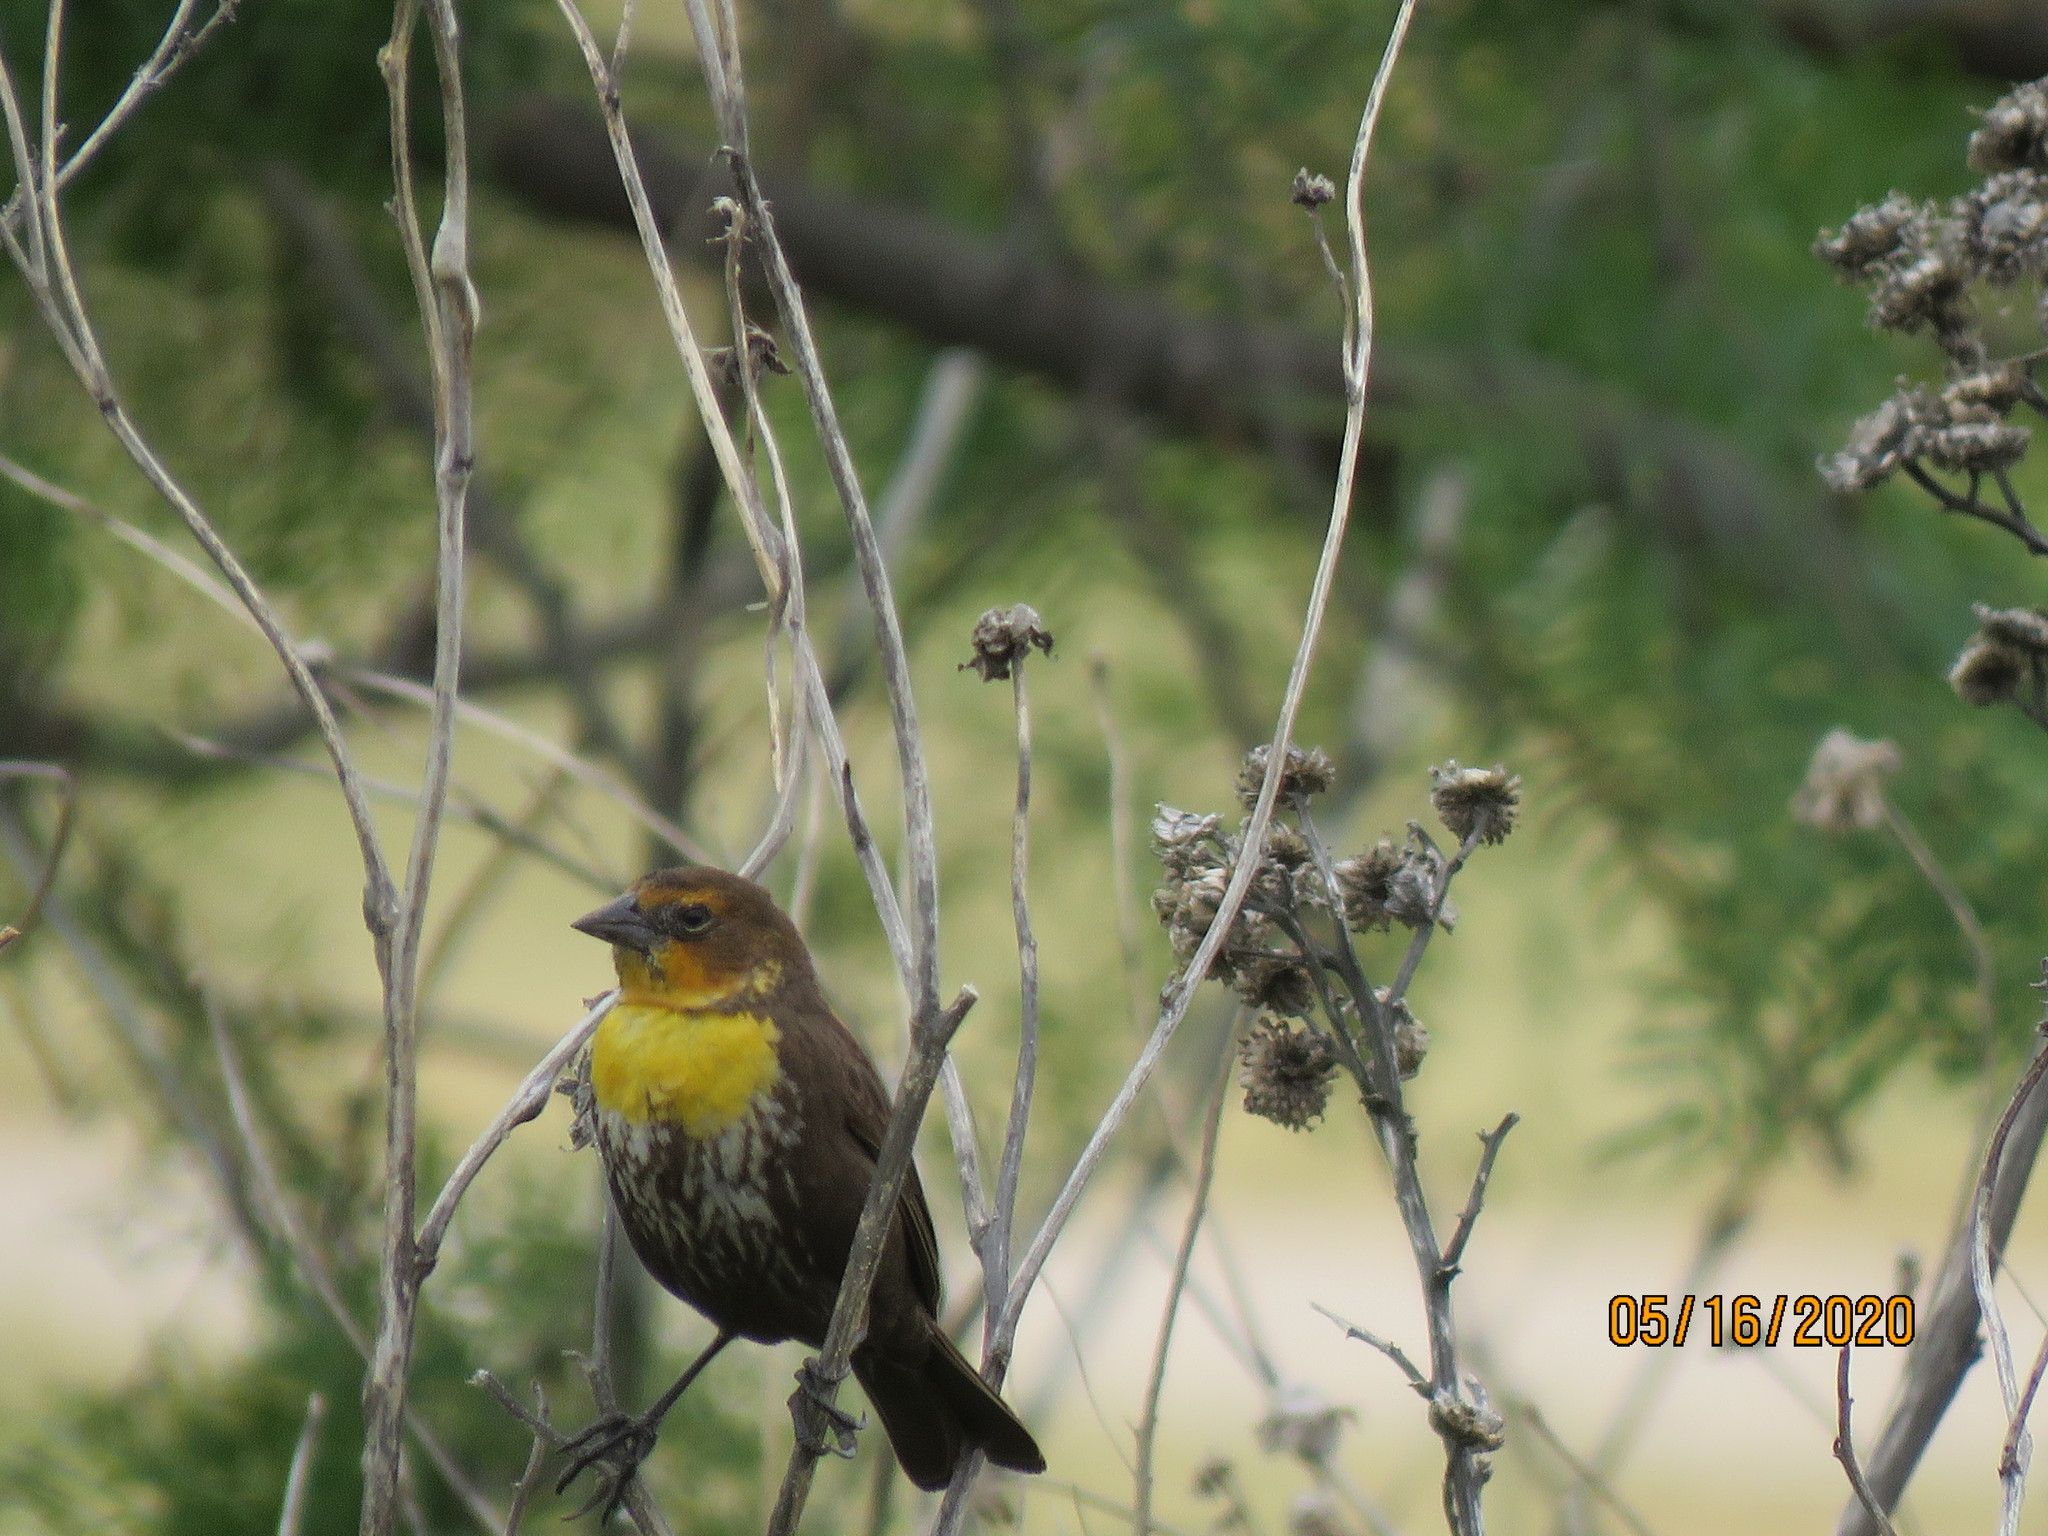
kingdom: Animalia
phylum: Chordata
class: Aves
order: Passeriformes
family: Icteridae
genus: Xanthocephalus
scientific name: Xanthocephalus xanthocephalus
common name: Yellow-headed blackbird
